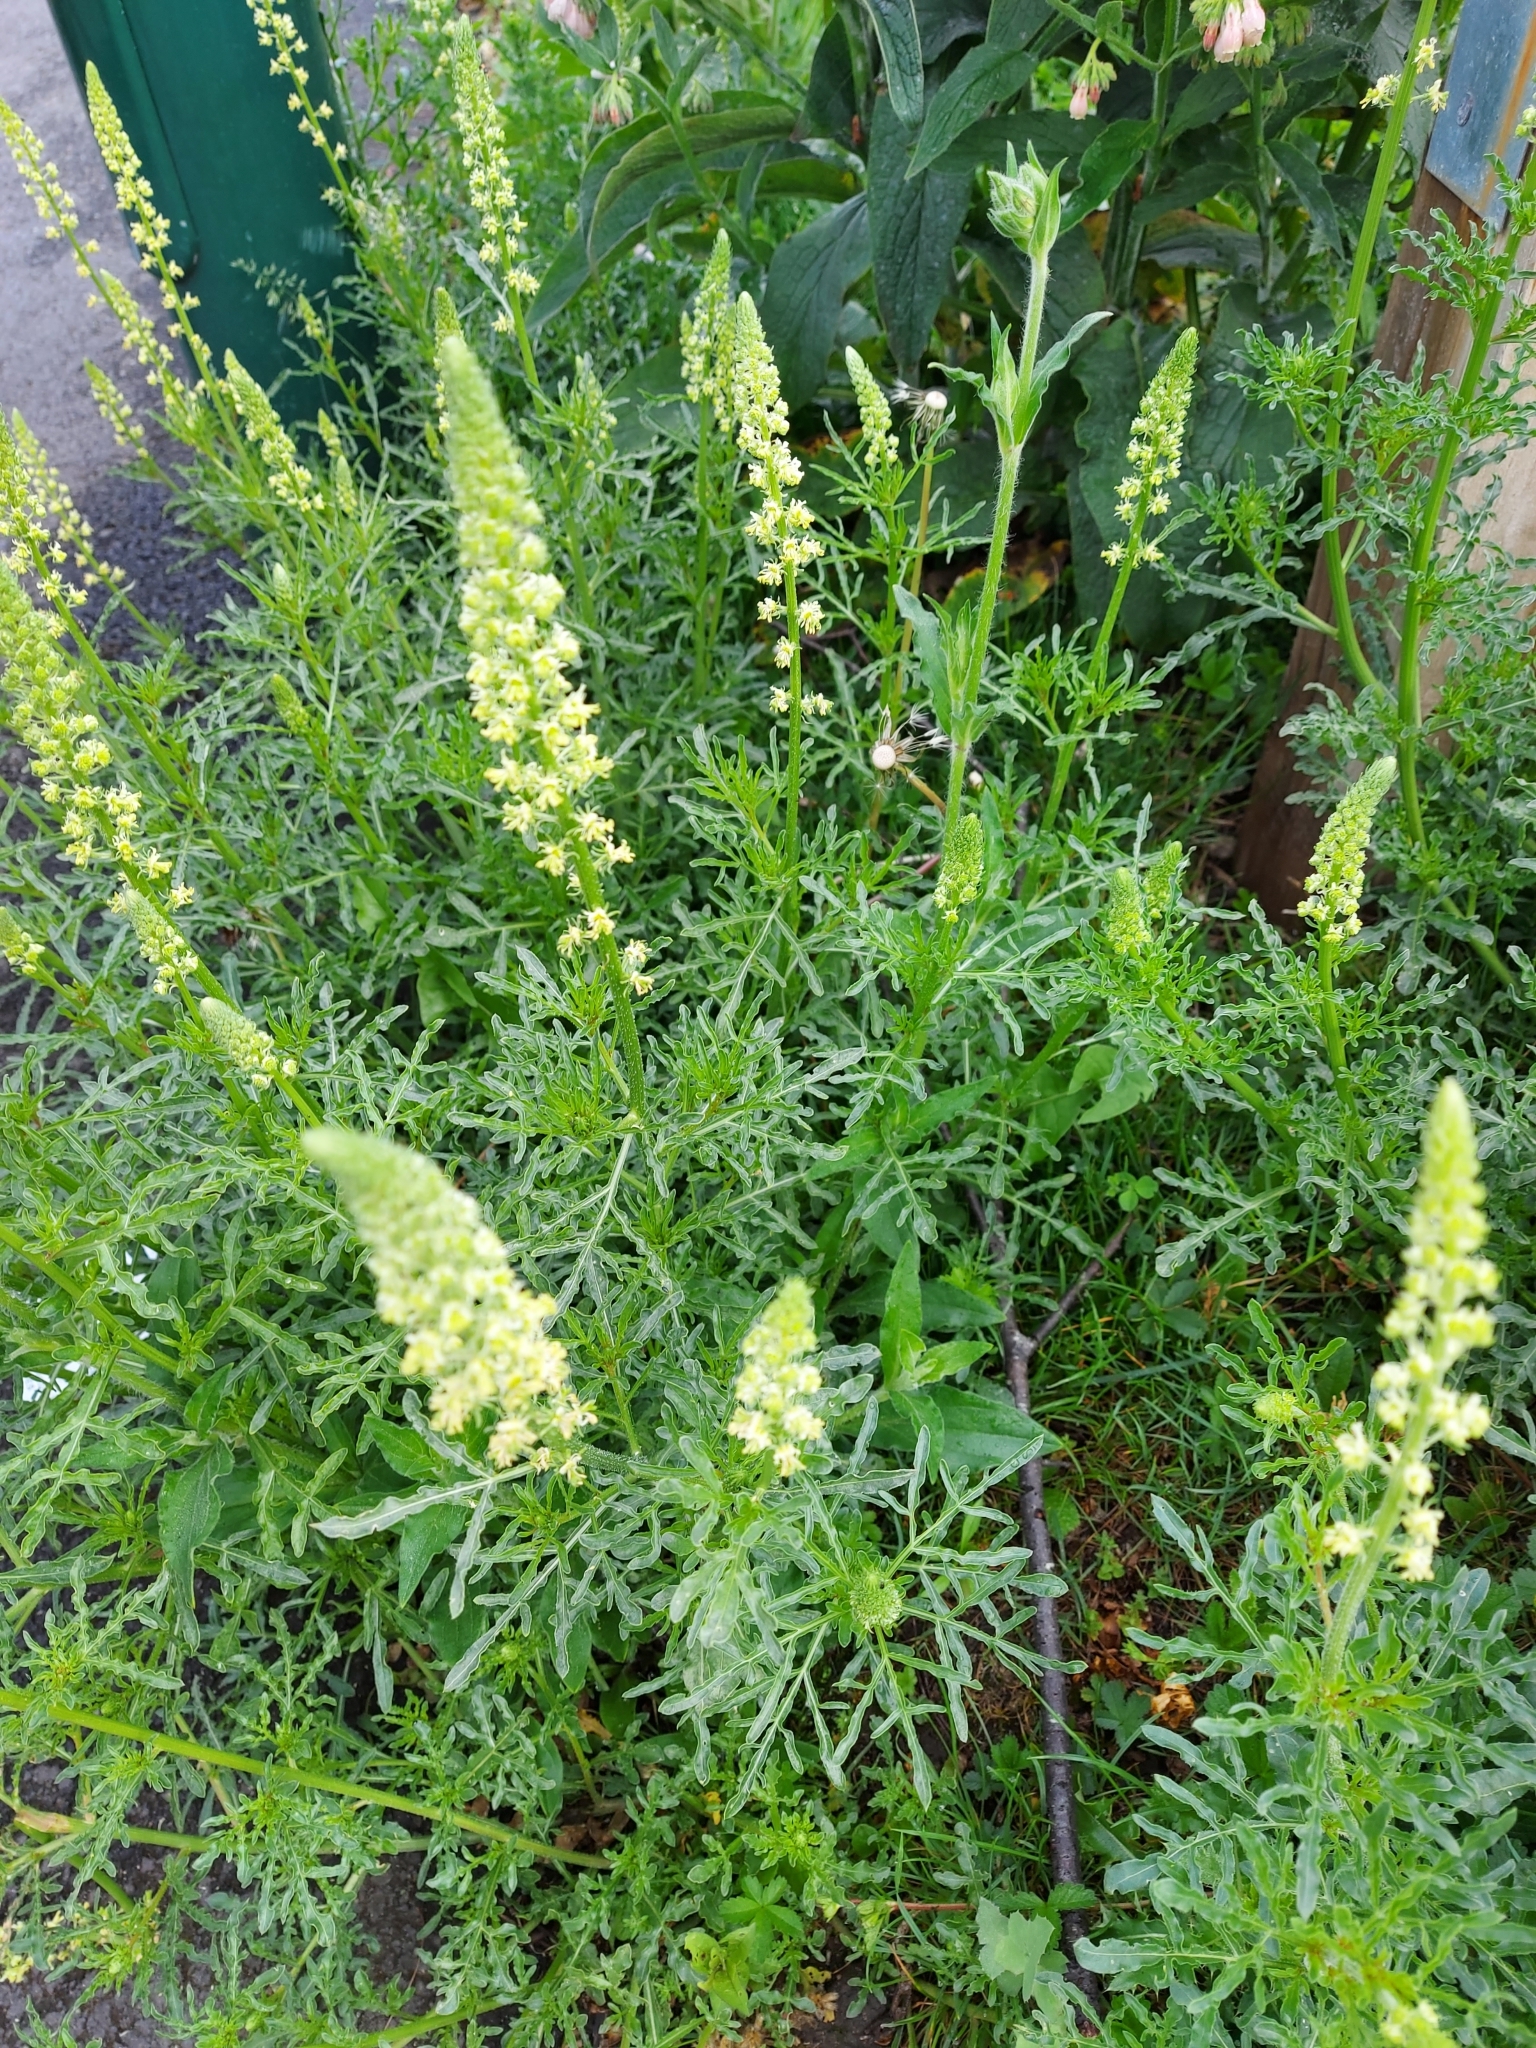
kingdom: Plantae
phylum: Tracheophyta
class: Magnoliopsida
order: Brassicales
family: Resedaceae
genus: Reseda
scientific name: Reseda lutea
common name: Wild mignonette
